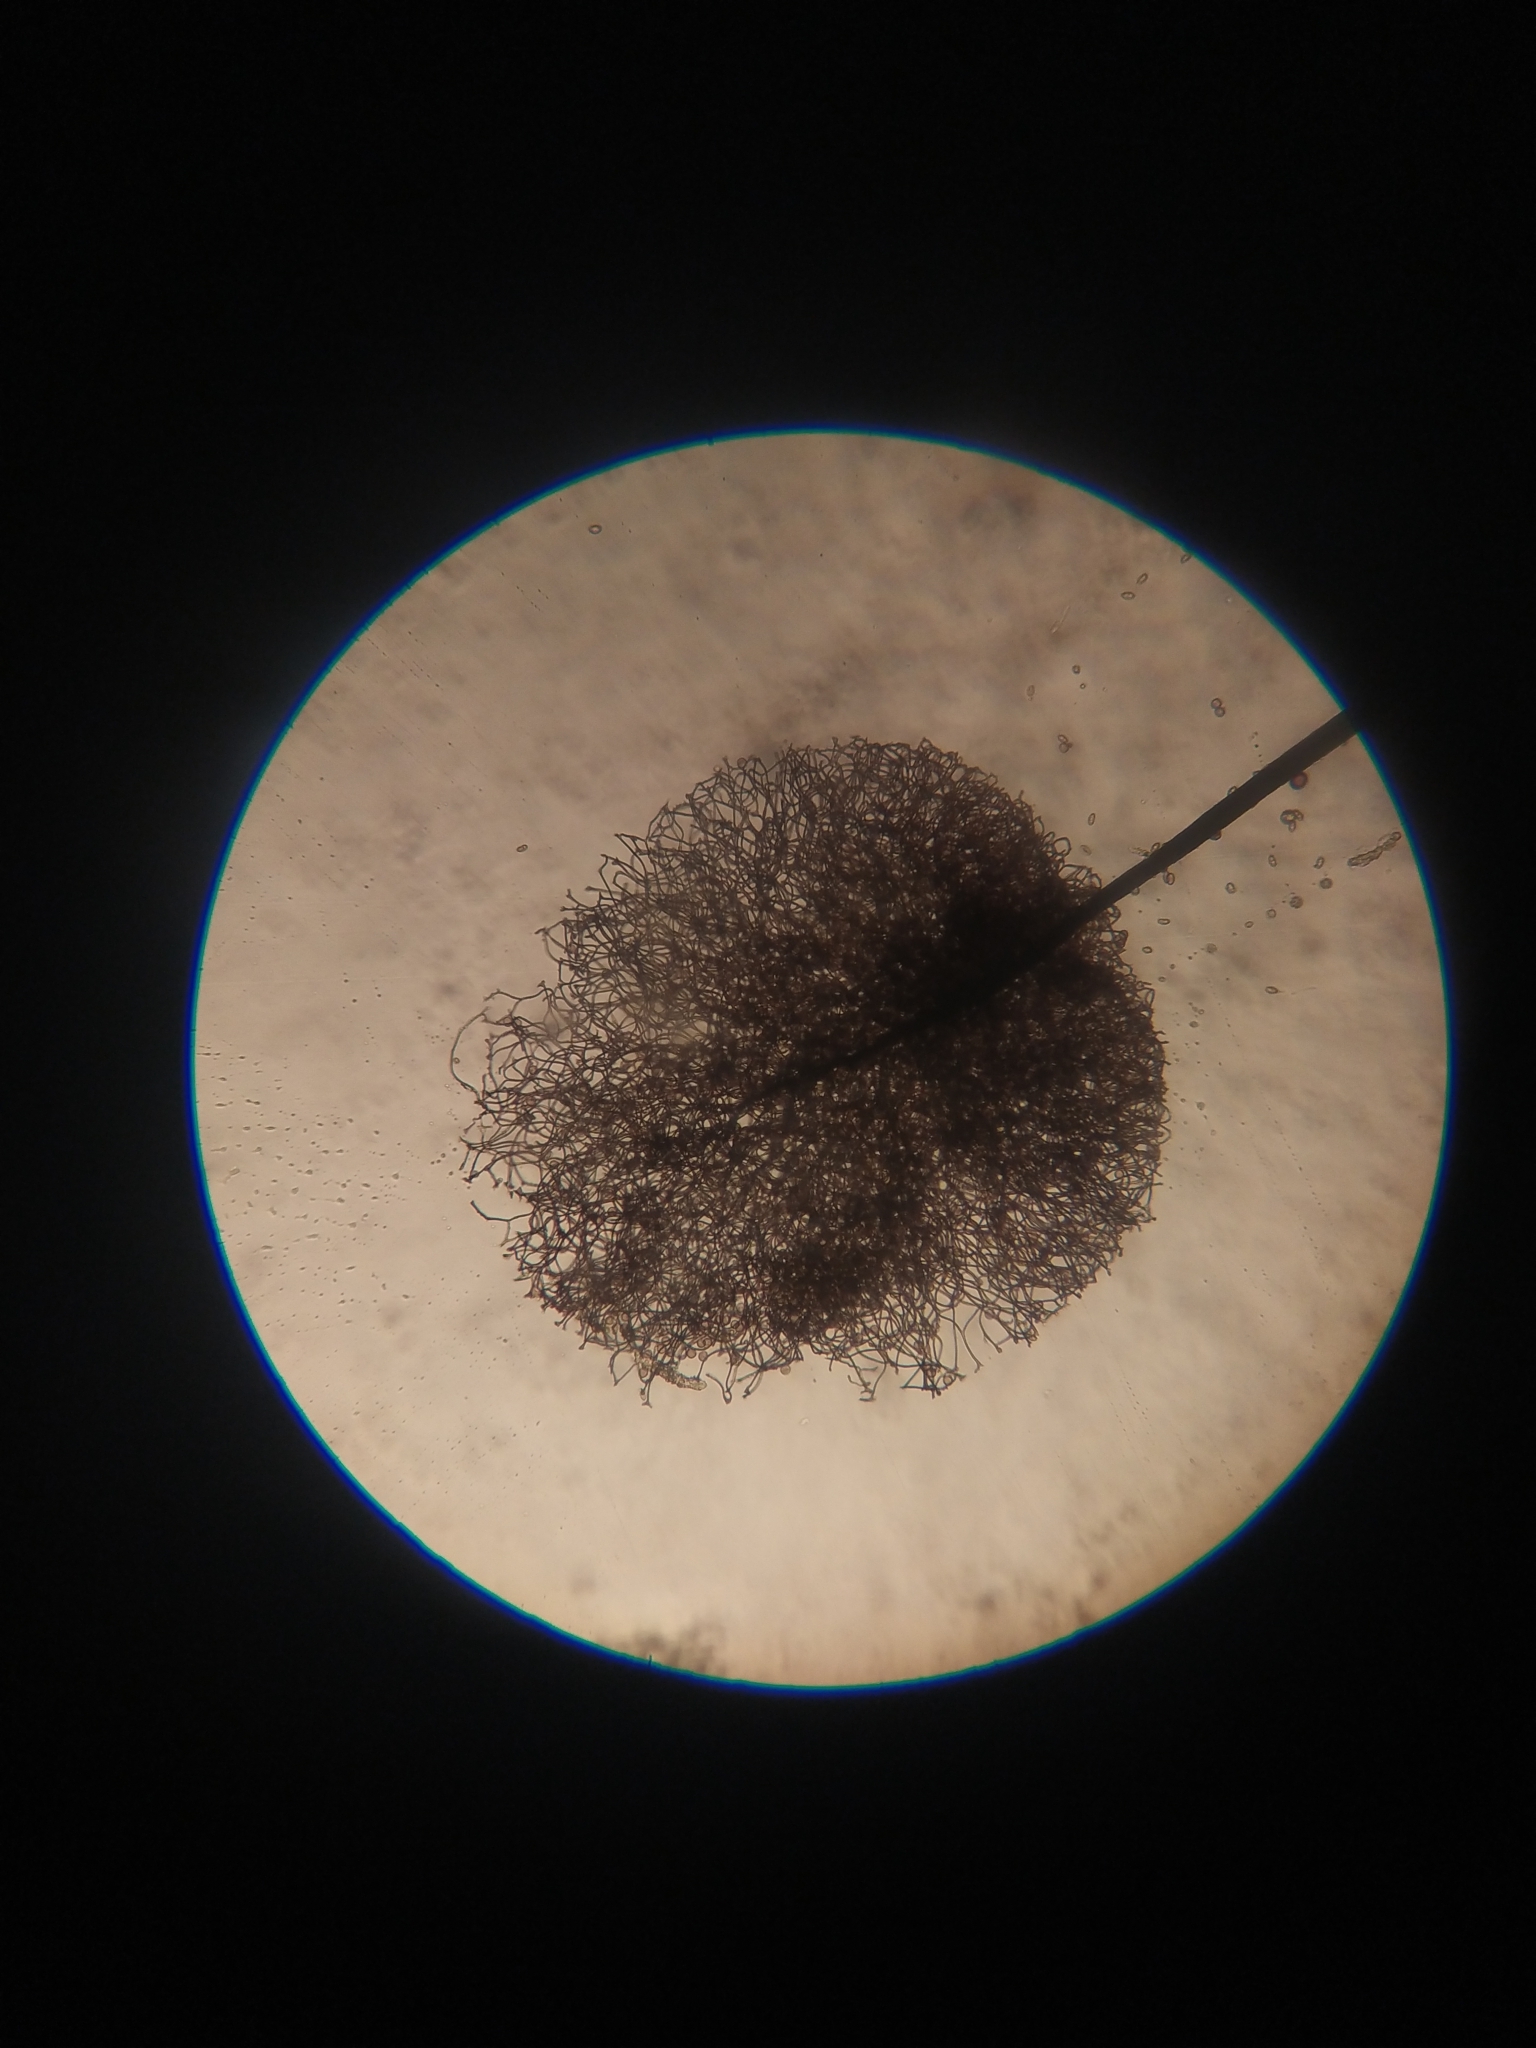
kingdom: Protozoa
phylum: Mycetozoa
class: Myxomycetes
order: Stemonitidales
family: Stemonitidaceae
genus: Comatricha
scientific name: Comatricha nigra
